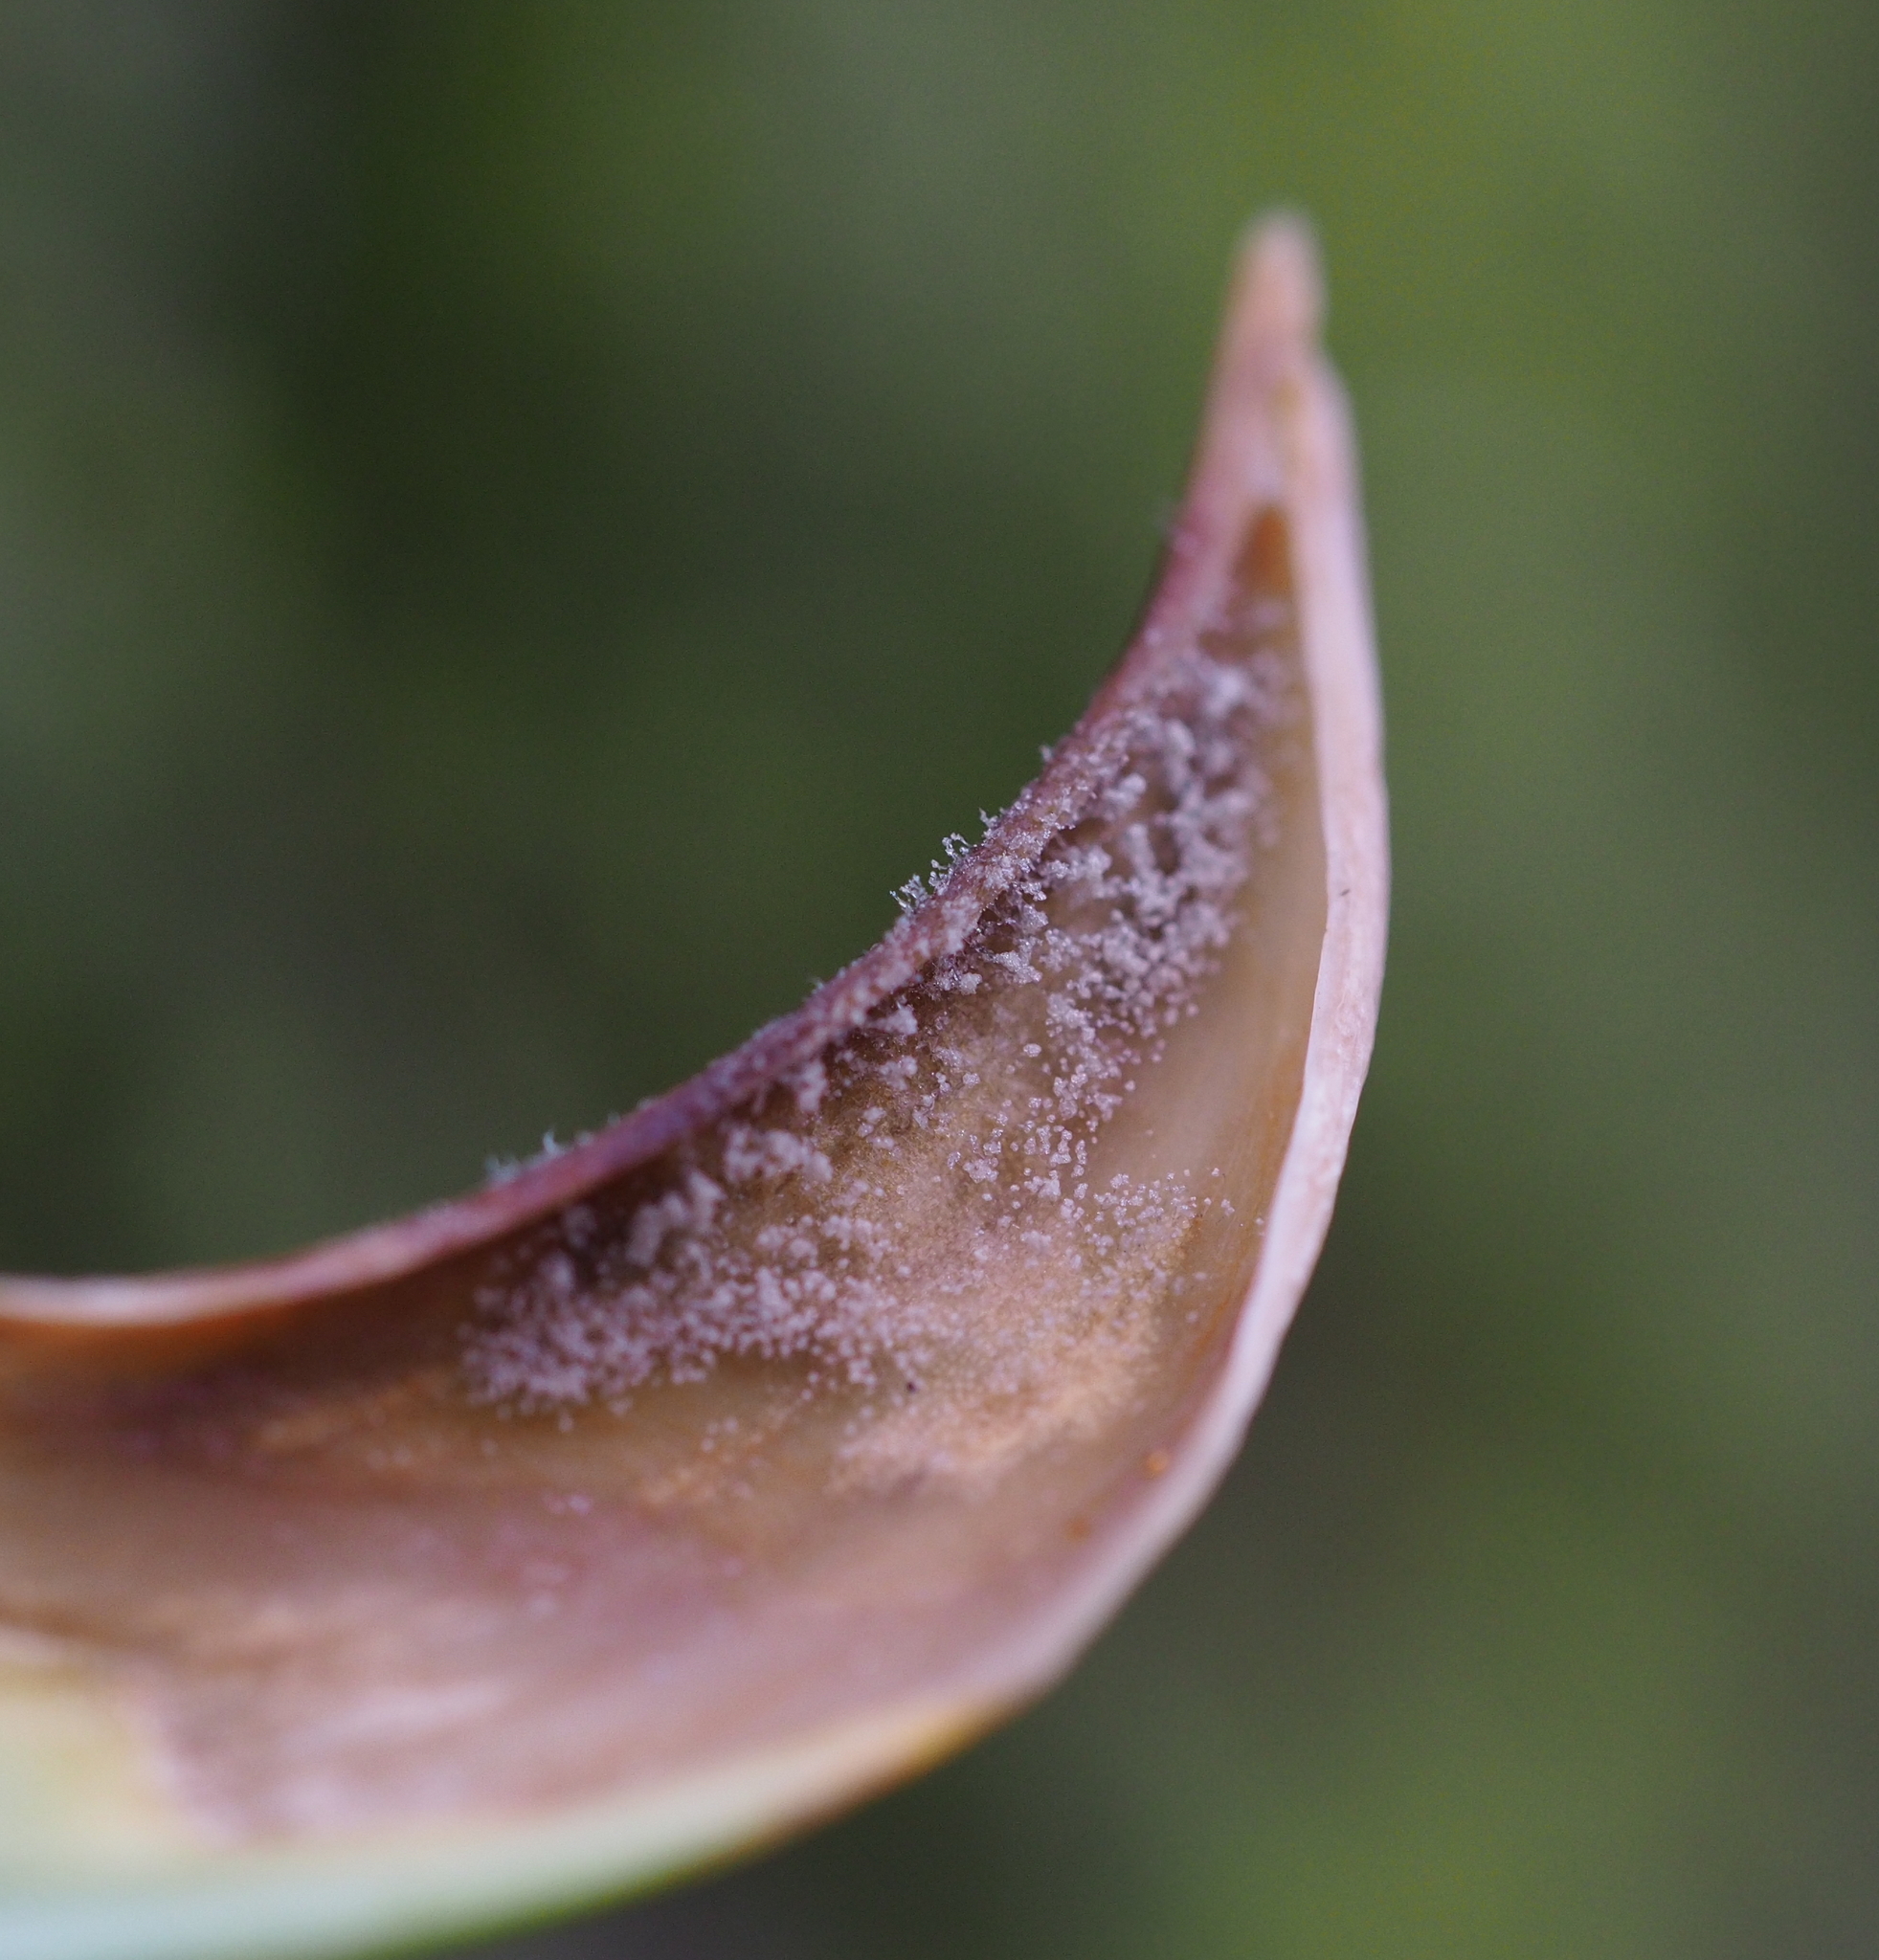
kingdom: Fungi
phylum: Ascomycota
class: Leotiomycetes
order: Helotiales
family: Sclerotiniaceae
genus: Botrytis
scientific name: Botrytis tulipae
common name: Tulip fire
